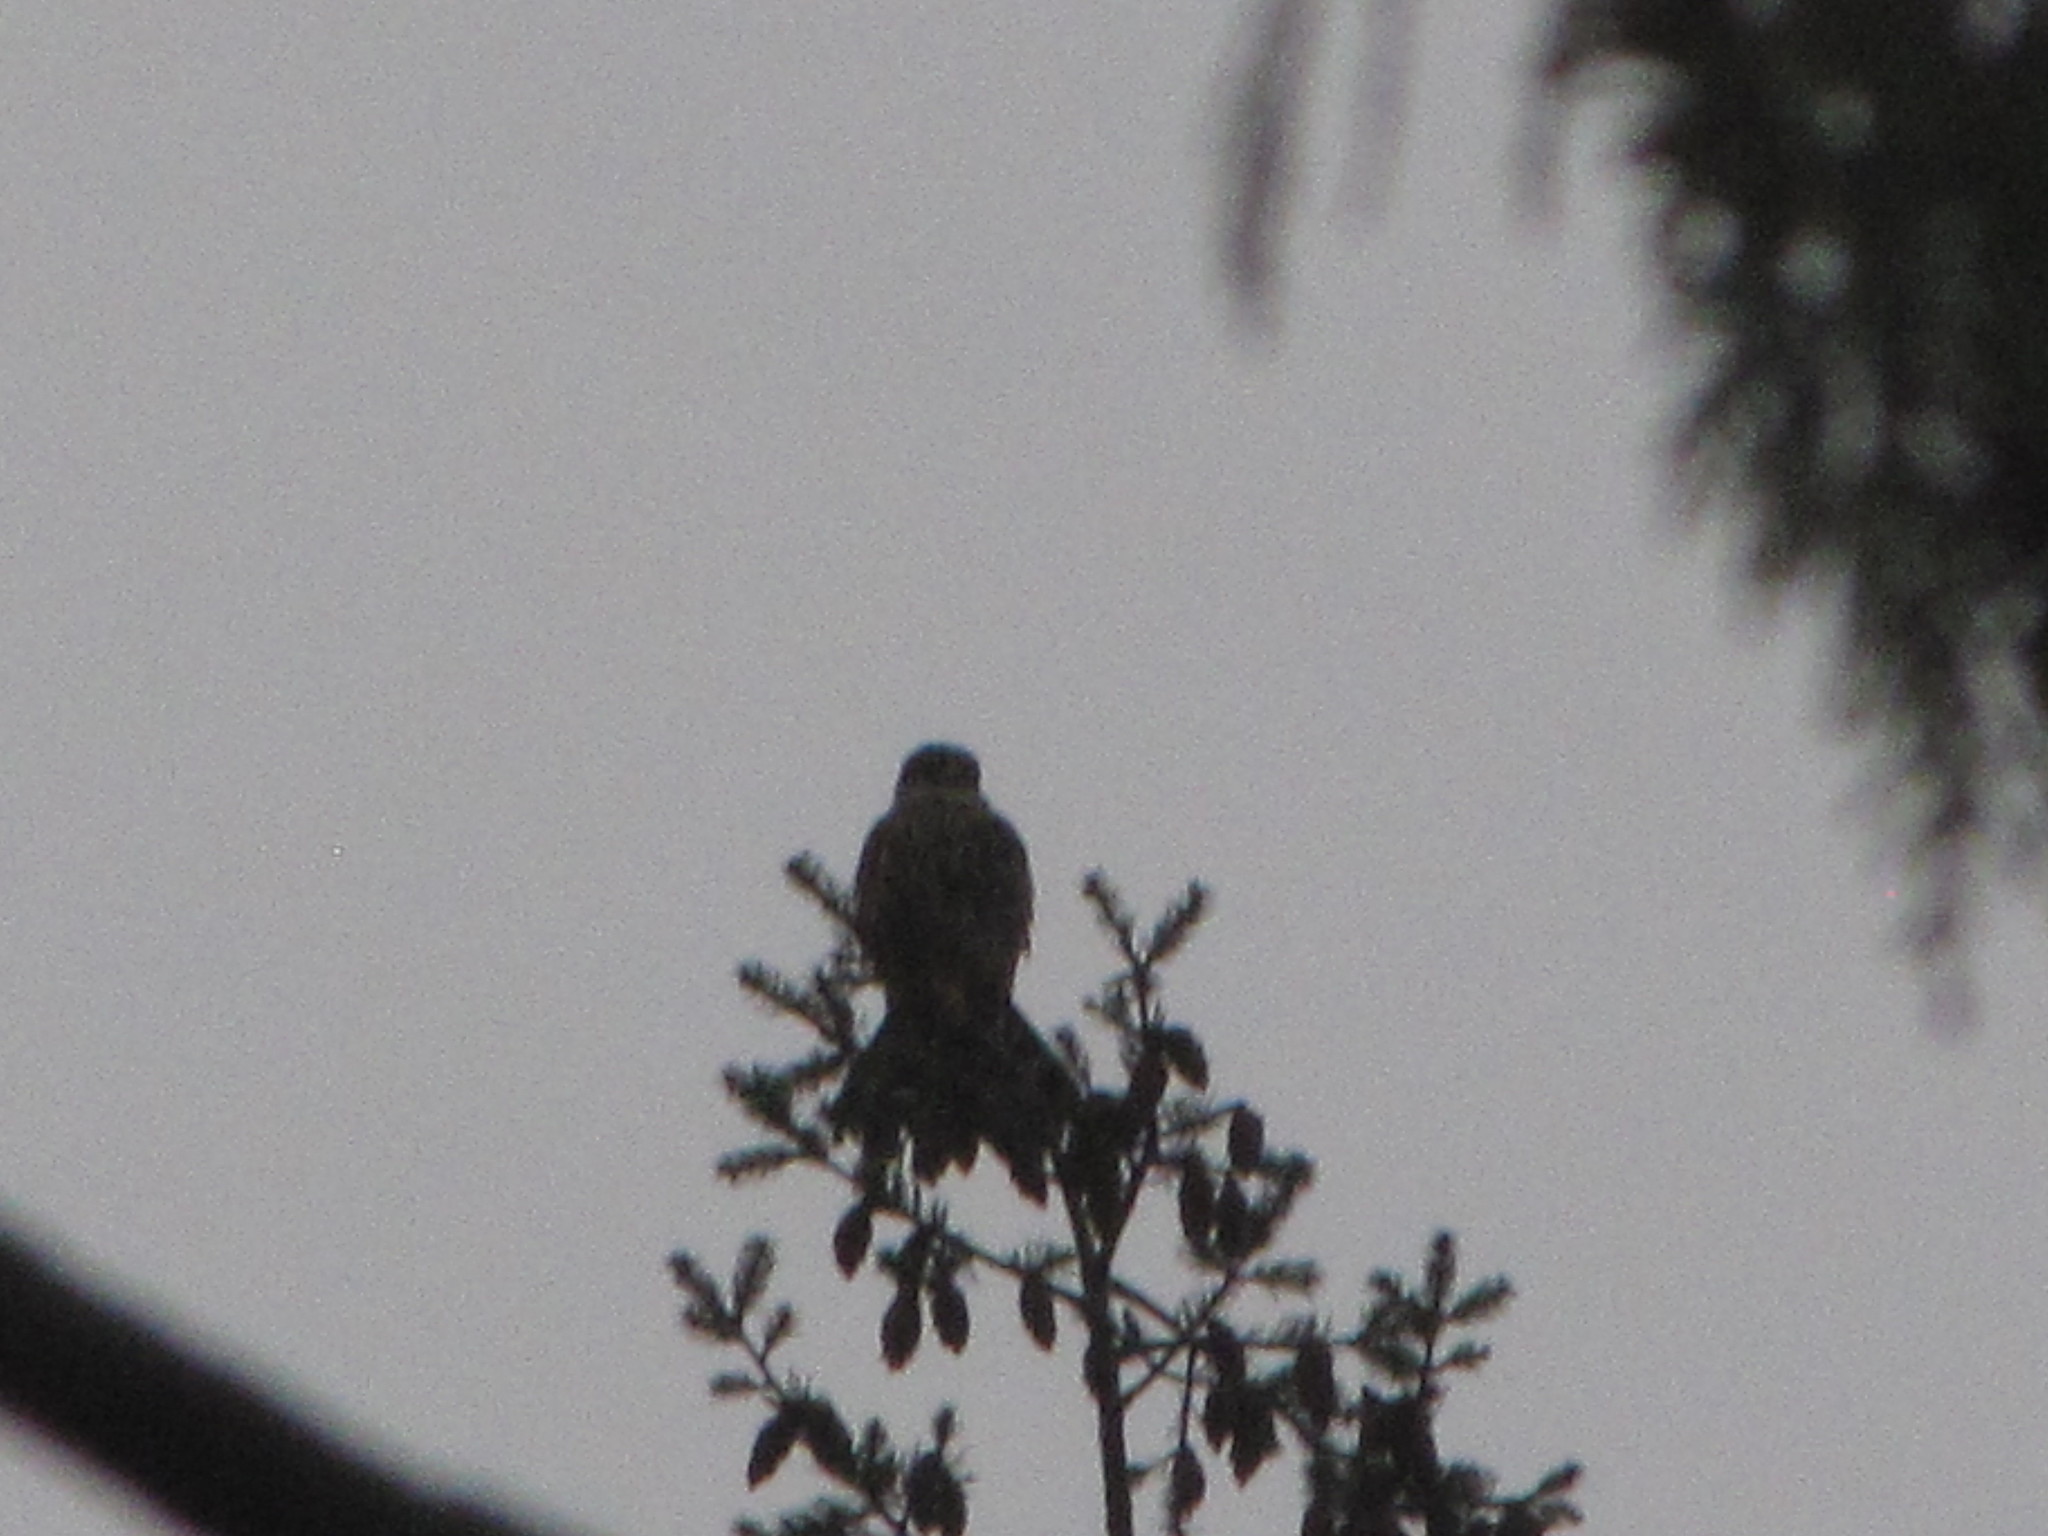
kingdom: Animalia
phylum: Chordata
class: Aves
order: Falconiformes
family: Falconidae
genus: Falco
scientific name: Falco columbarius
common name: Merlin
